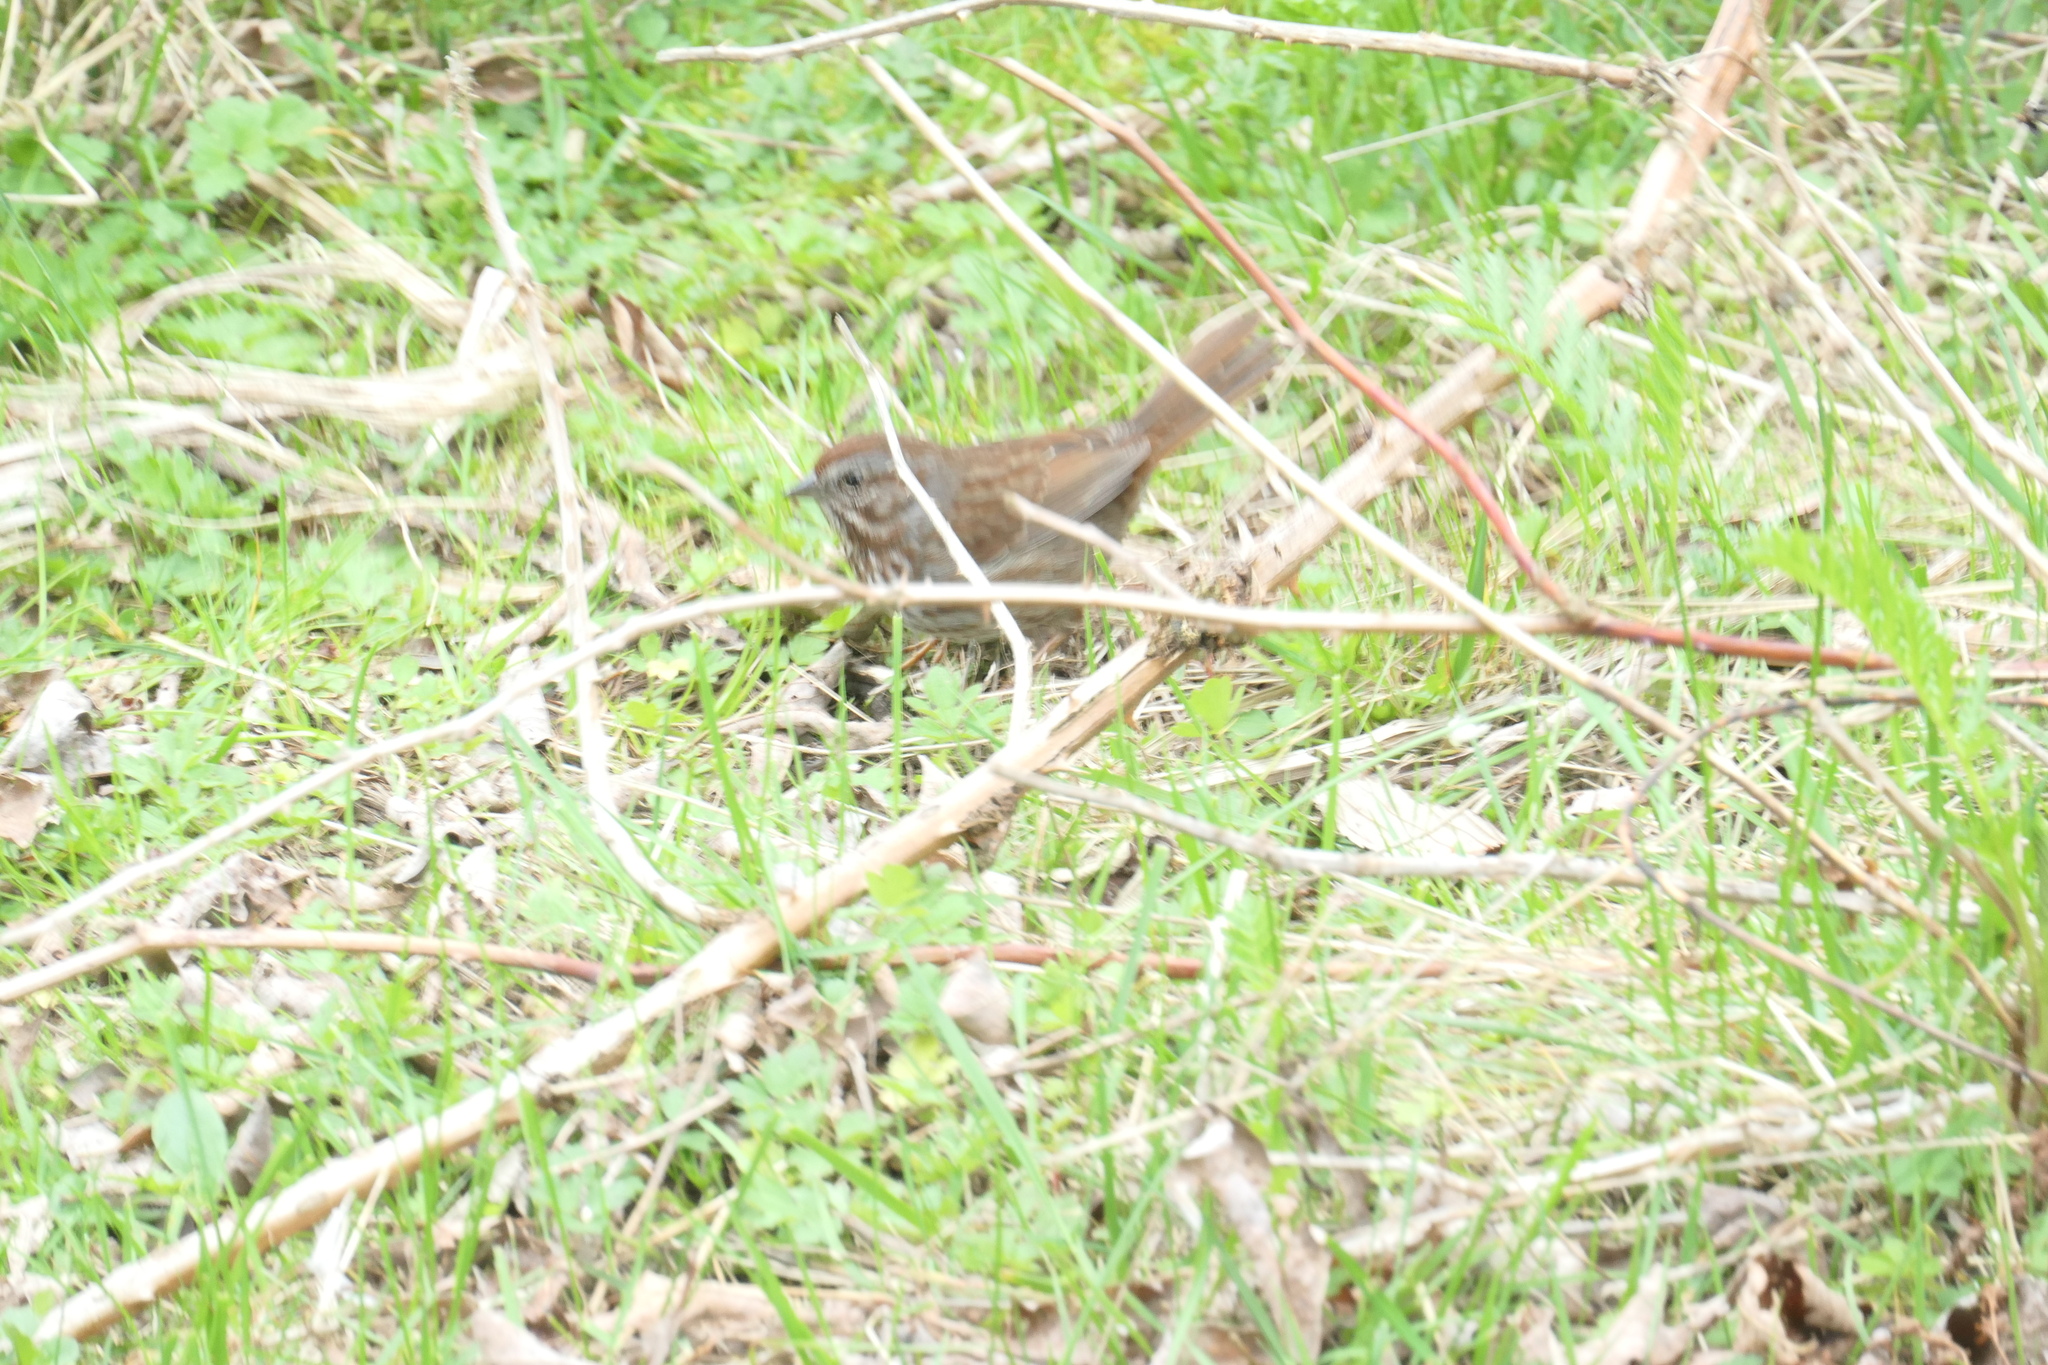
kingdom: Animalia
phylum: Chordata
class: Aves
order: Passeriformes
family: Passerellidae
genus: Melospiza
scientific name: Melospiza melodia
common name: Song sparrow
